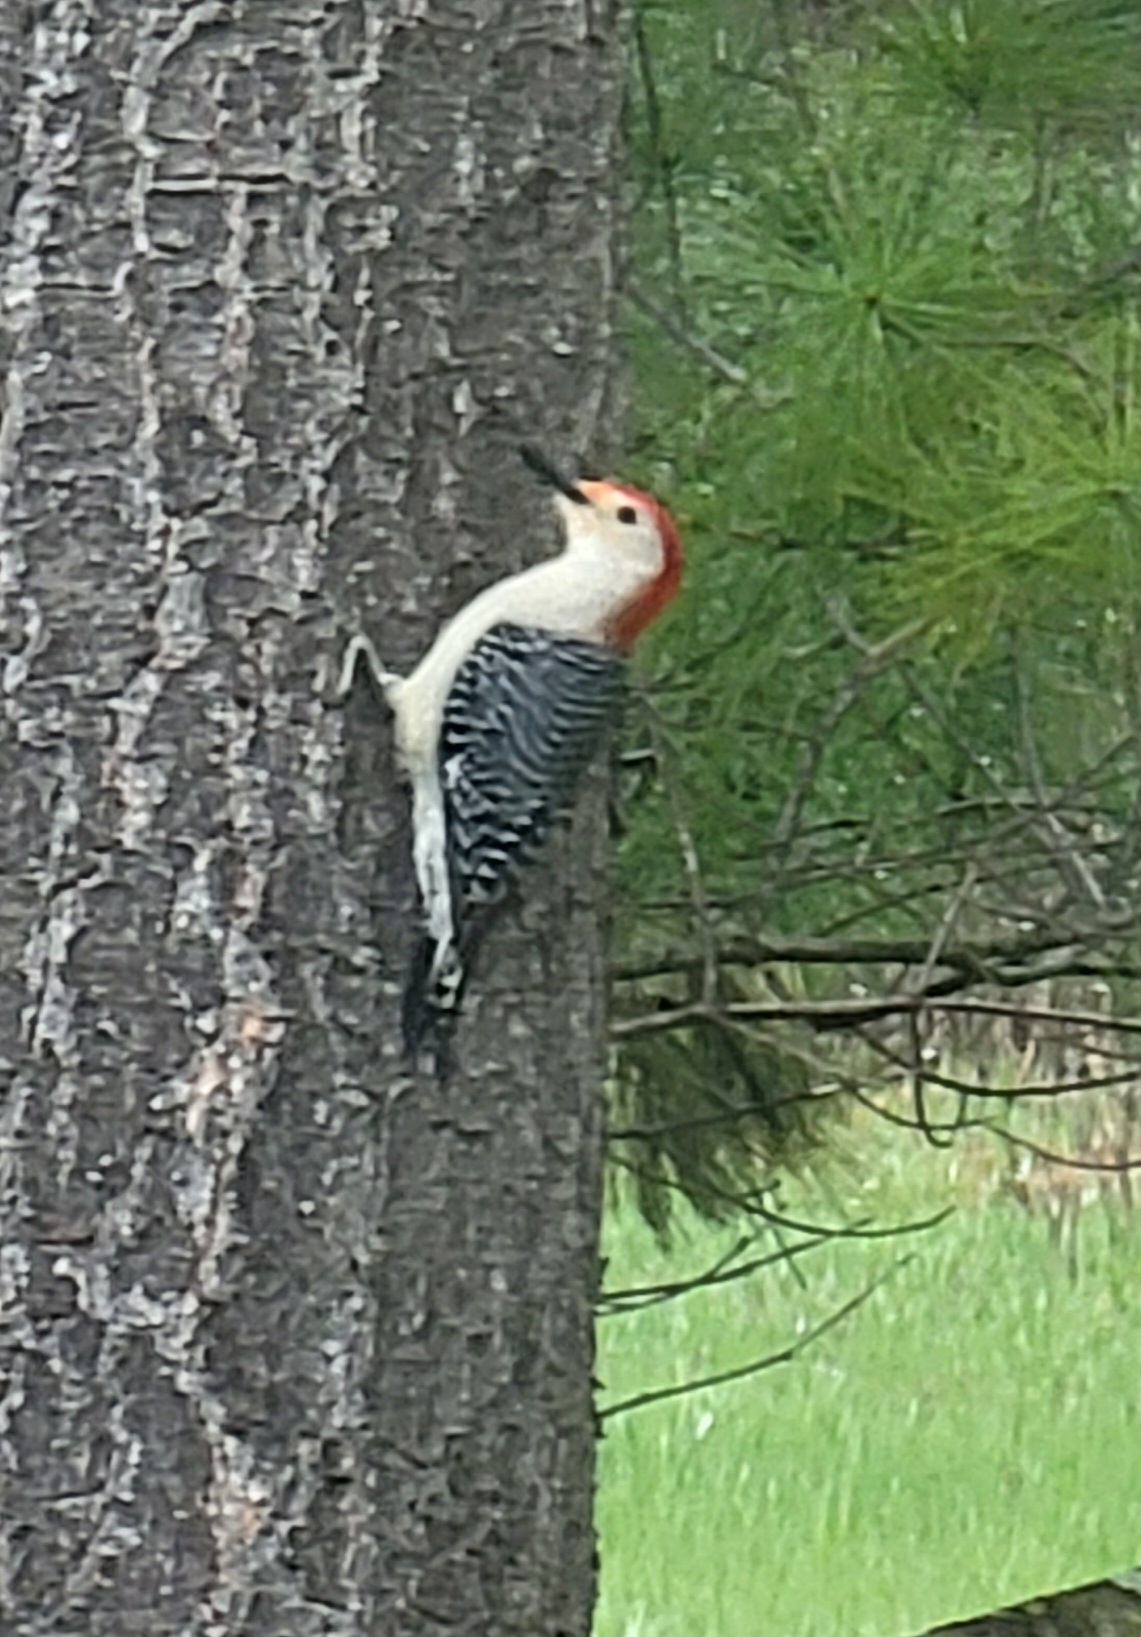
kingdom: Animalia
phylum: Chordata
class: Aves
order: Piciformes
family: Picidae
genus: Melanerpes
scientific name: Melanerpes carolinus
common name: Red-bellied woodpecker
